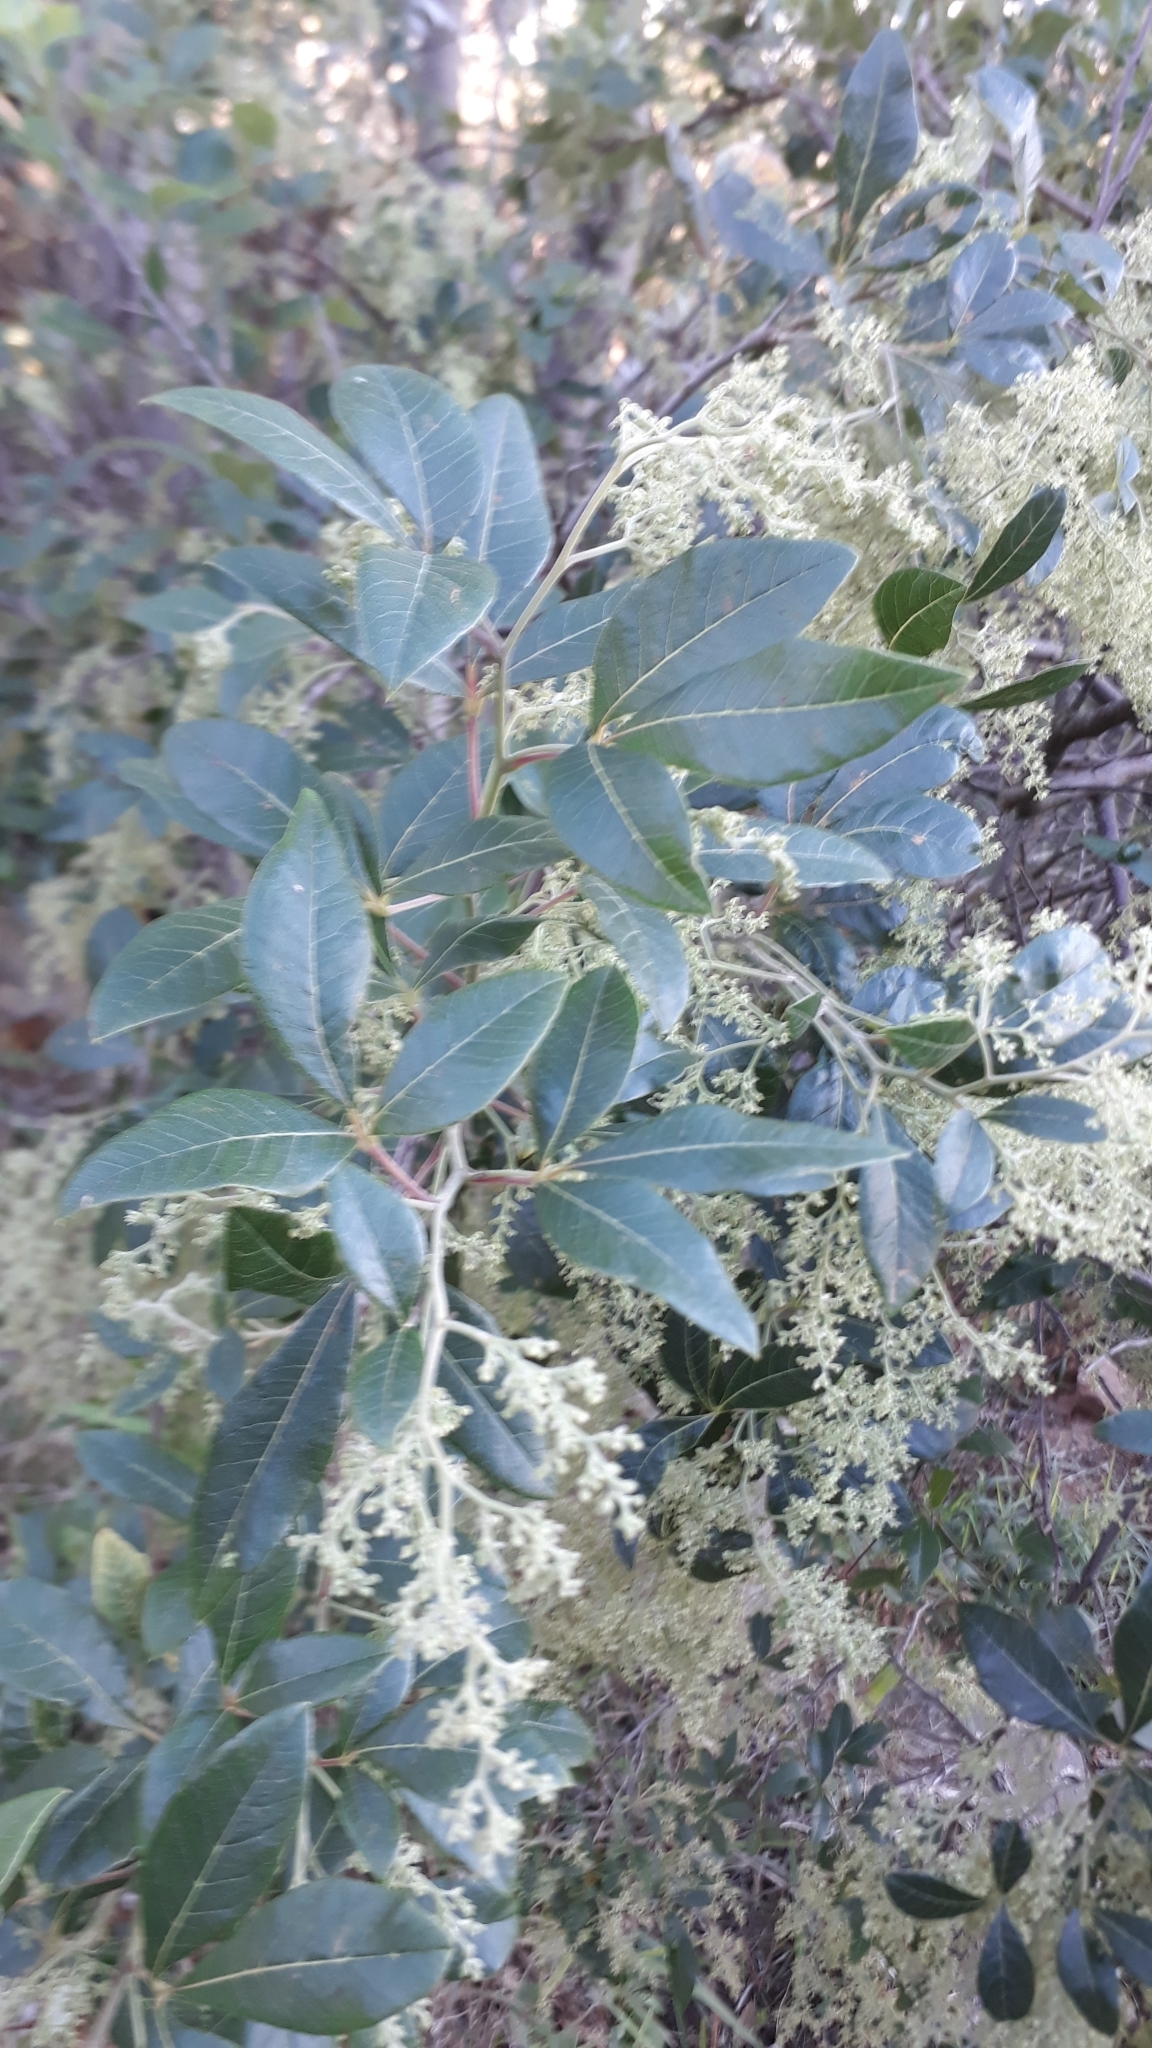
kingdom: Plantae
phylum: Tracheophyta
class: Magnoliopsida
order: Sapindales
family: Anacardiaceae
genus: Searsia
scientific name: Searsia tomentosa
